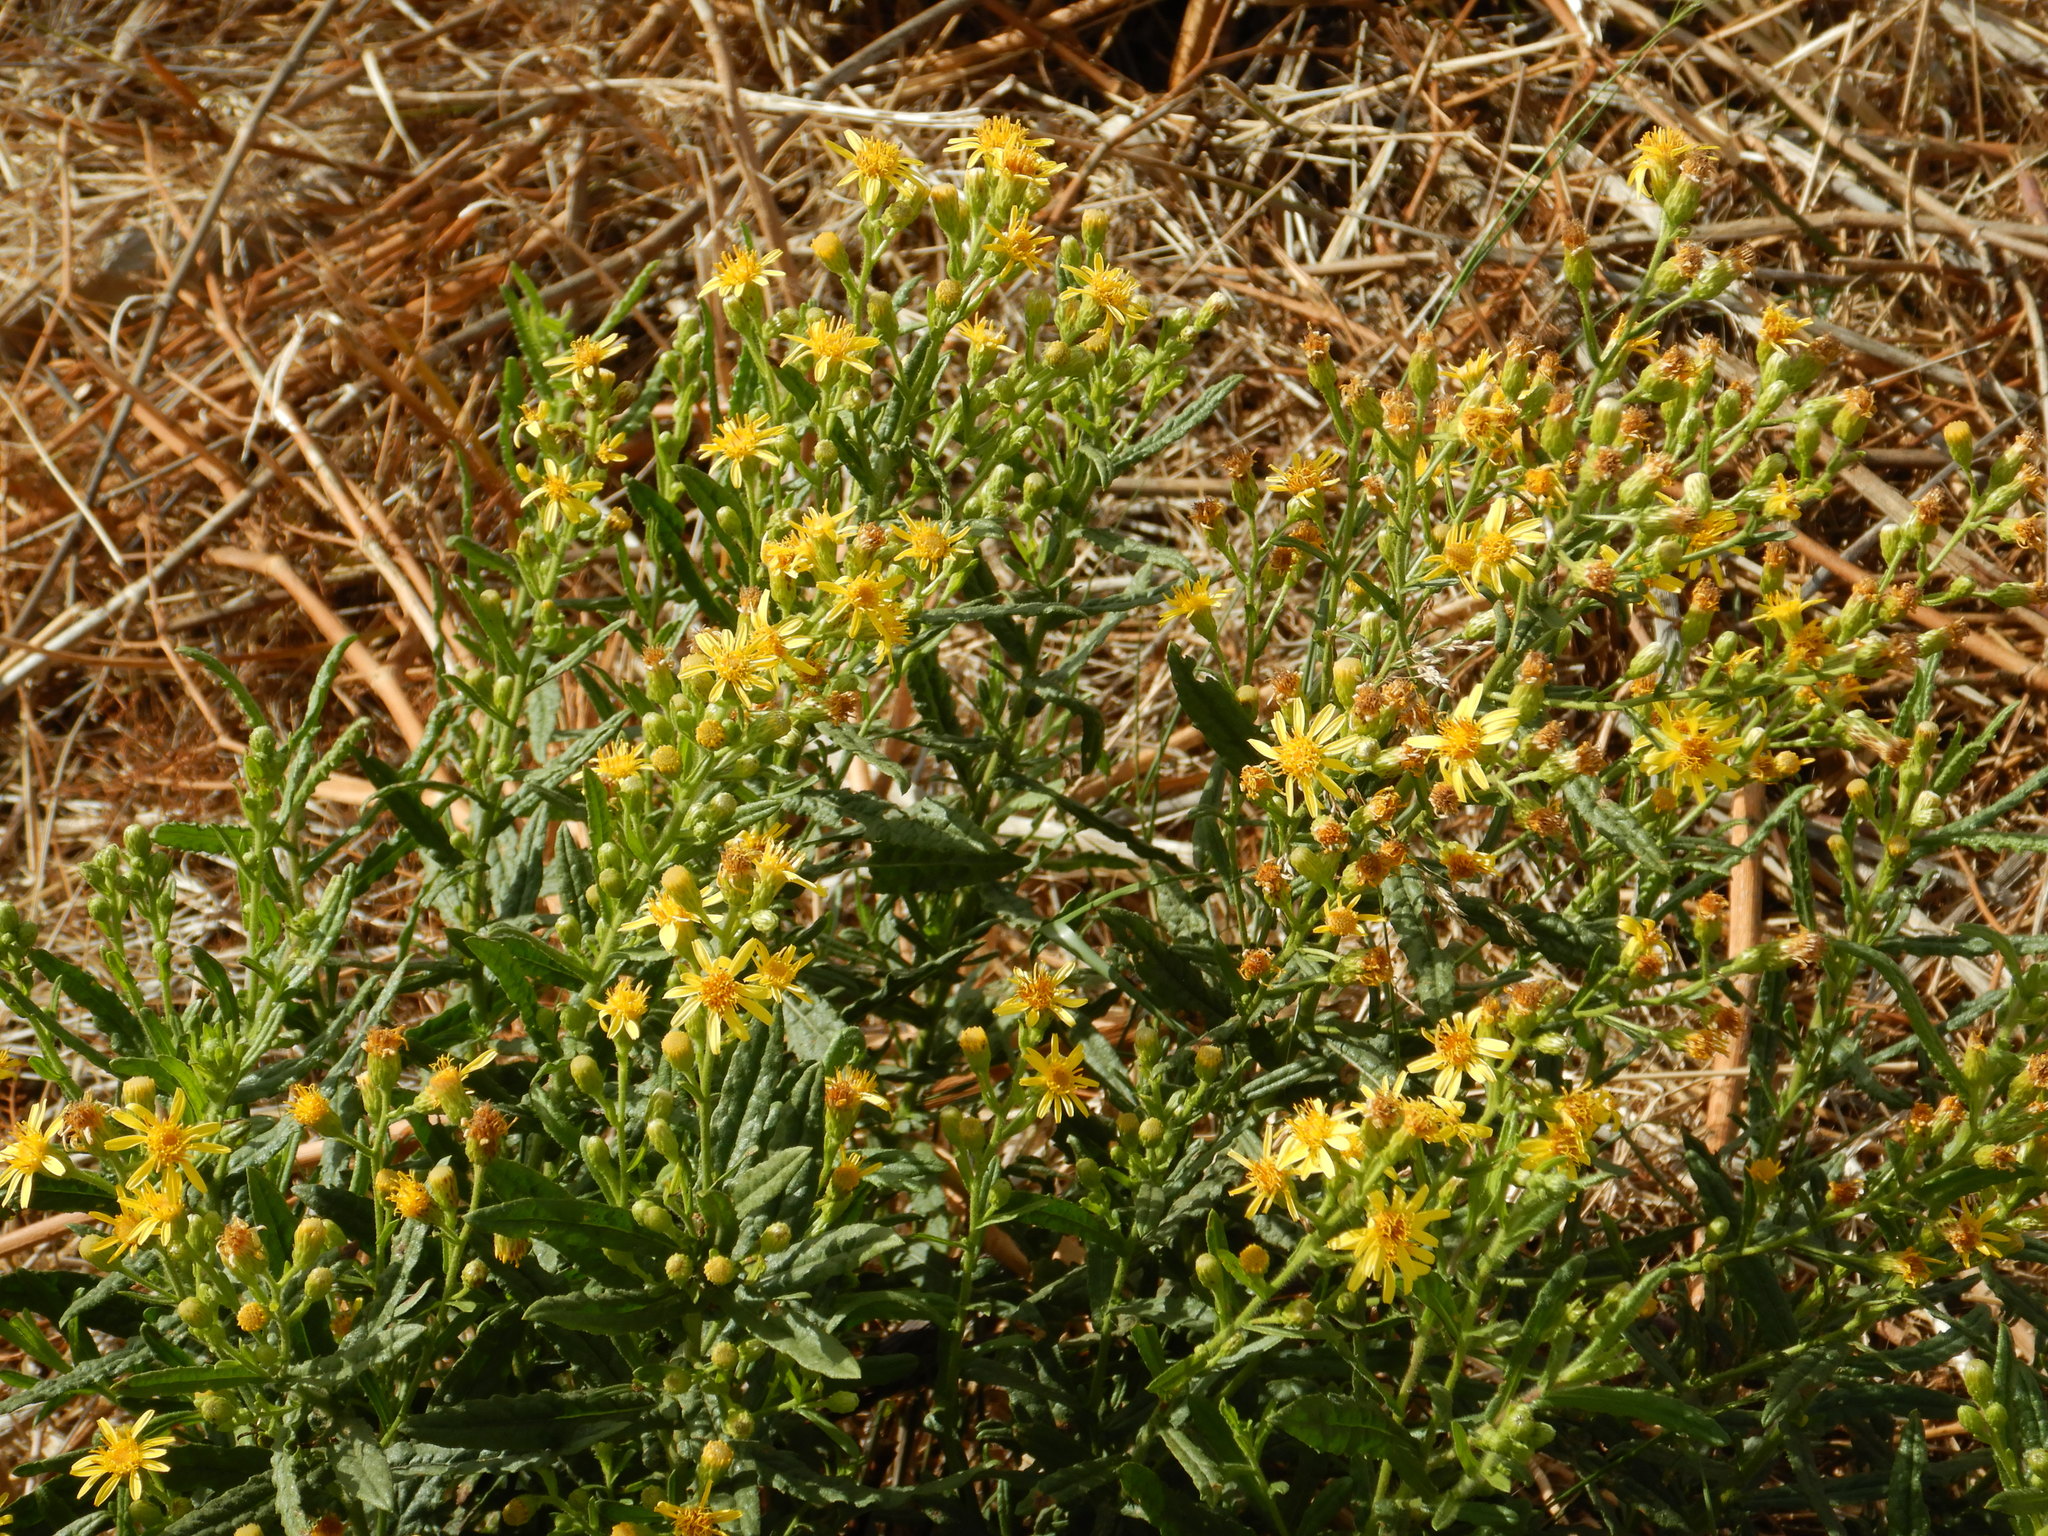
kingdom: Plantae
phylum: Tracheophyta
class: Magnoliopsida
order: Asterales
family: Asteraceae
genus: Dittrichia
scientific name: Dittrichia viscosa
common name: Woody fleabane
